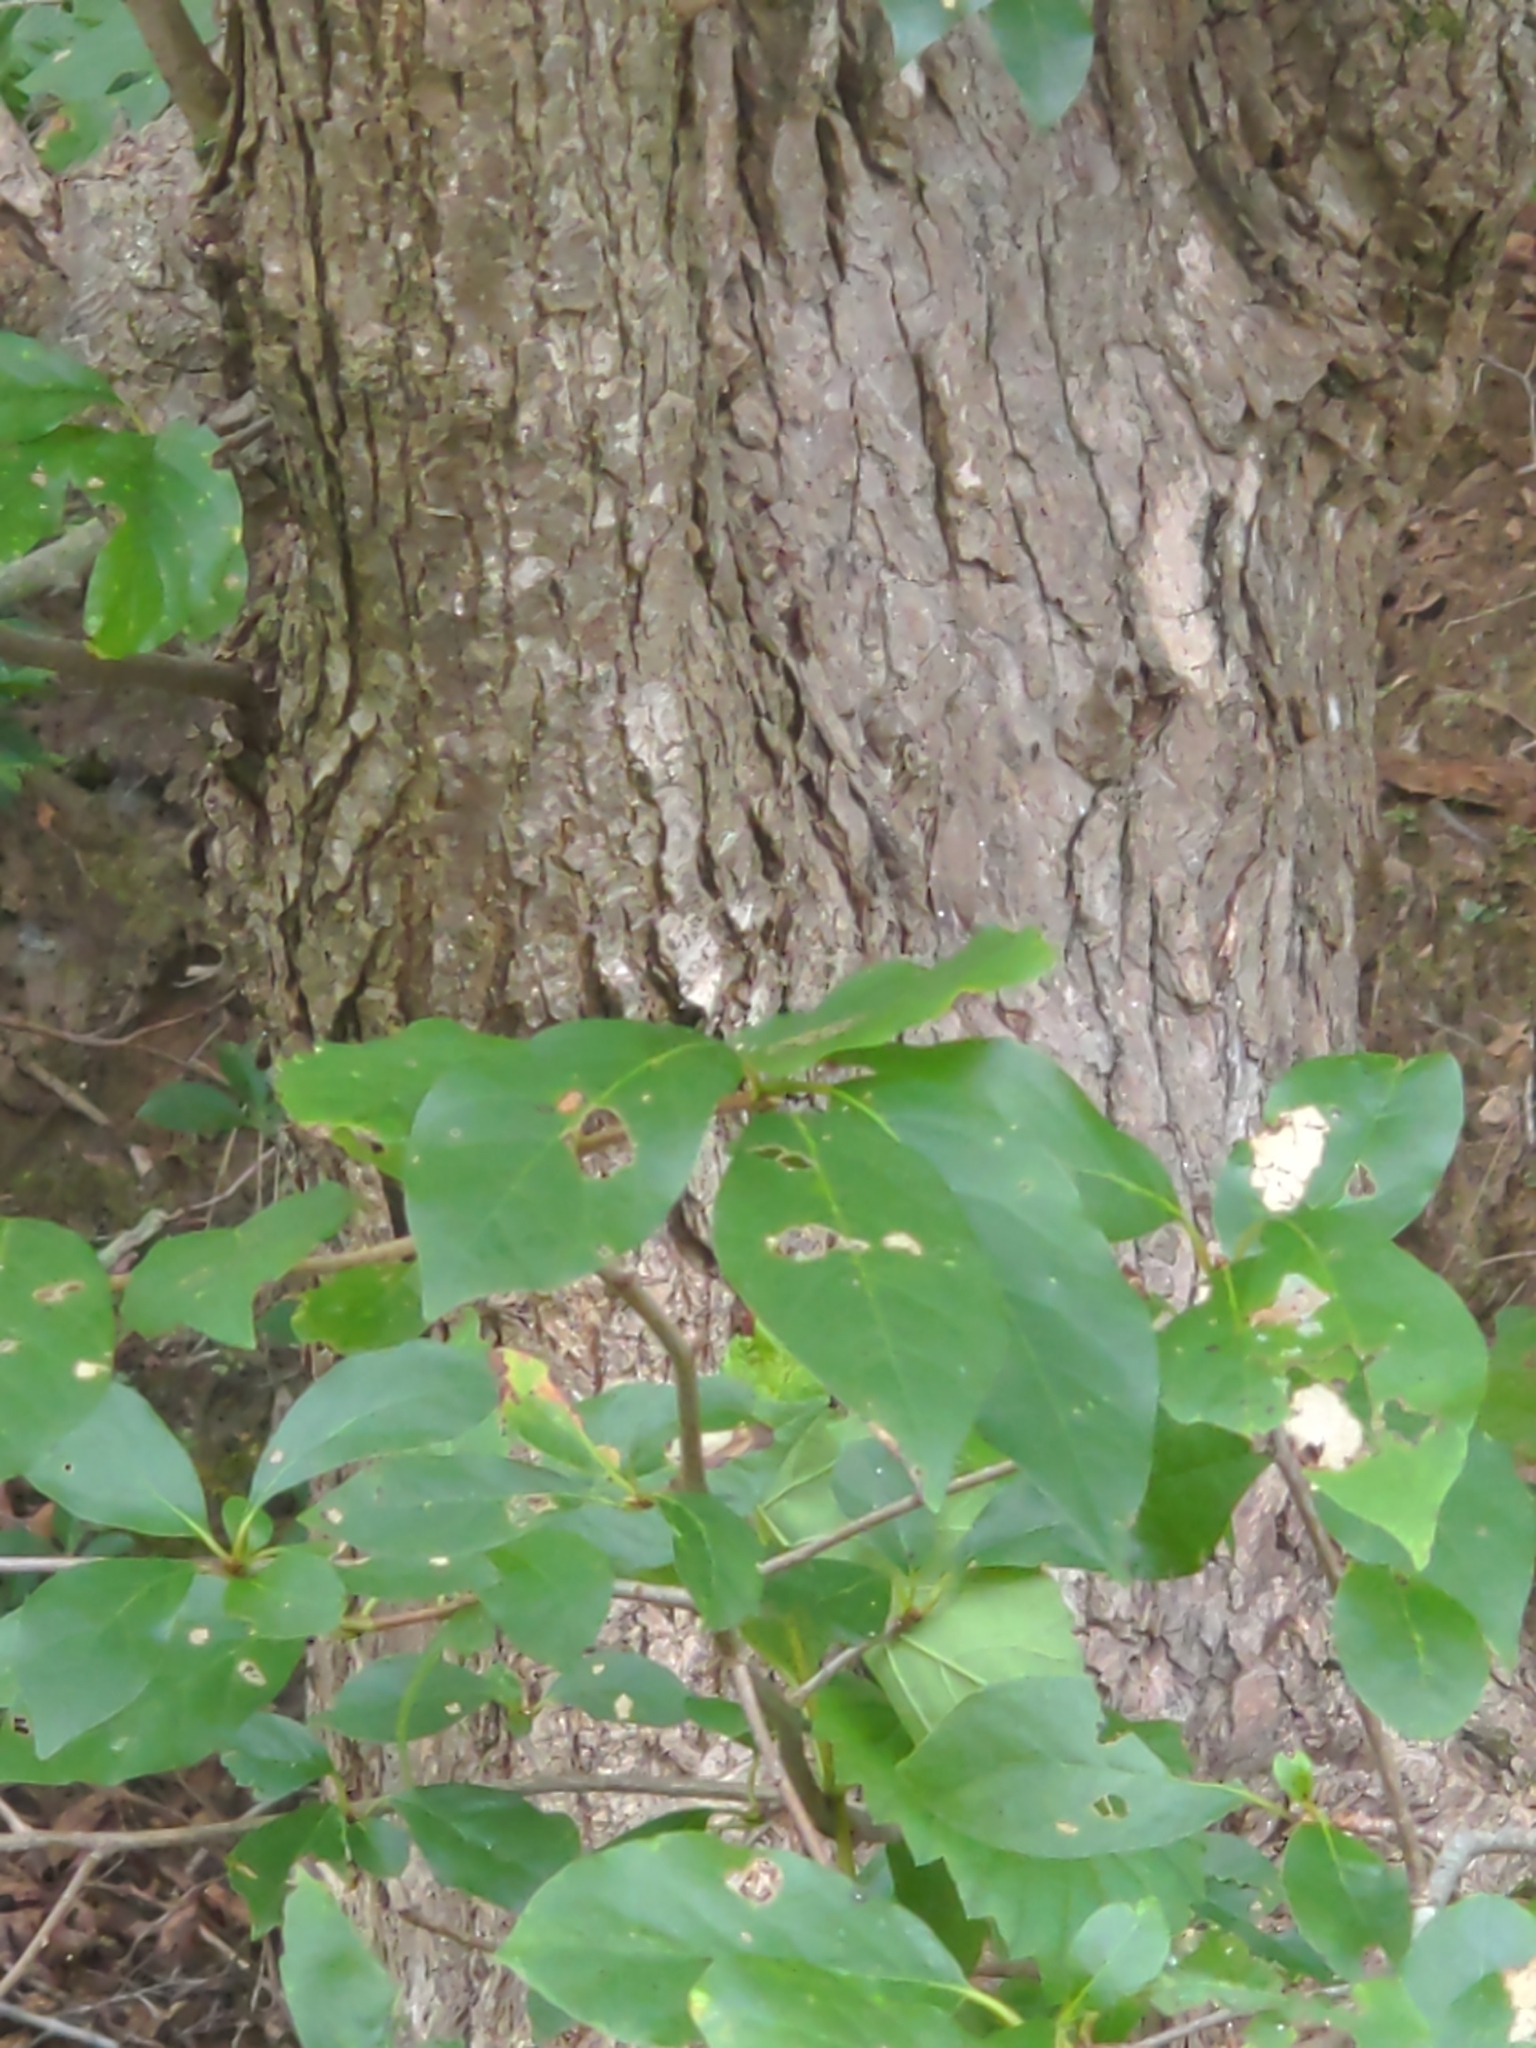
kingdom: Plantae
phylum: Tracheophyta
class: Magnoliopsida
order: Cornales
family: Nyssaceae
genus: Nyssa
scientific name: Nyssa aquatica
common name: Swamp tupelo
